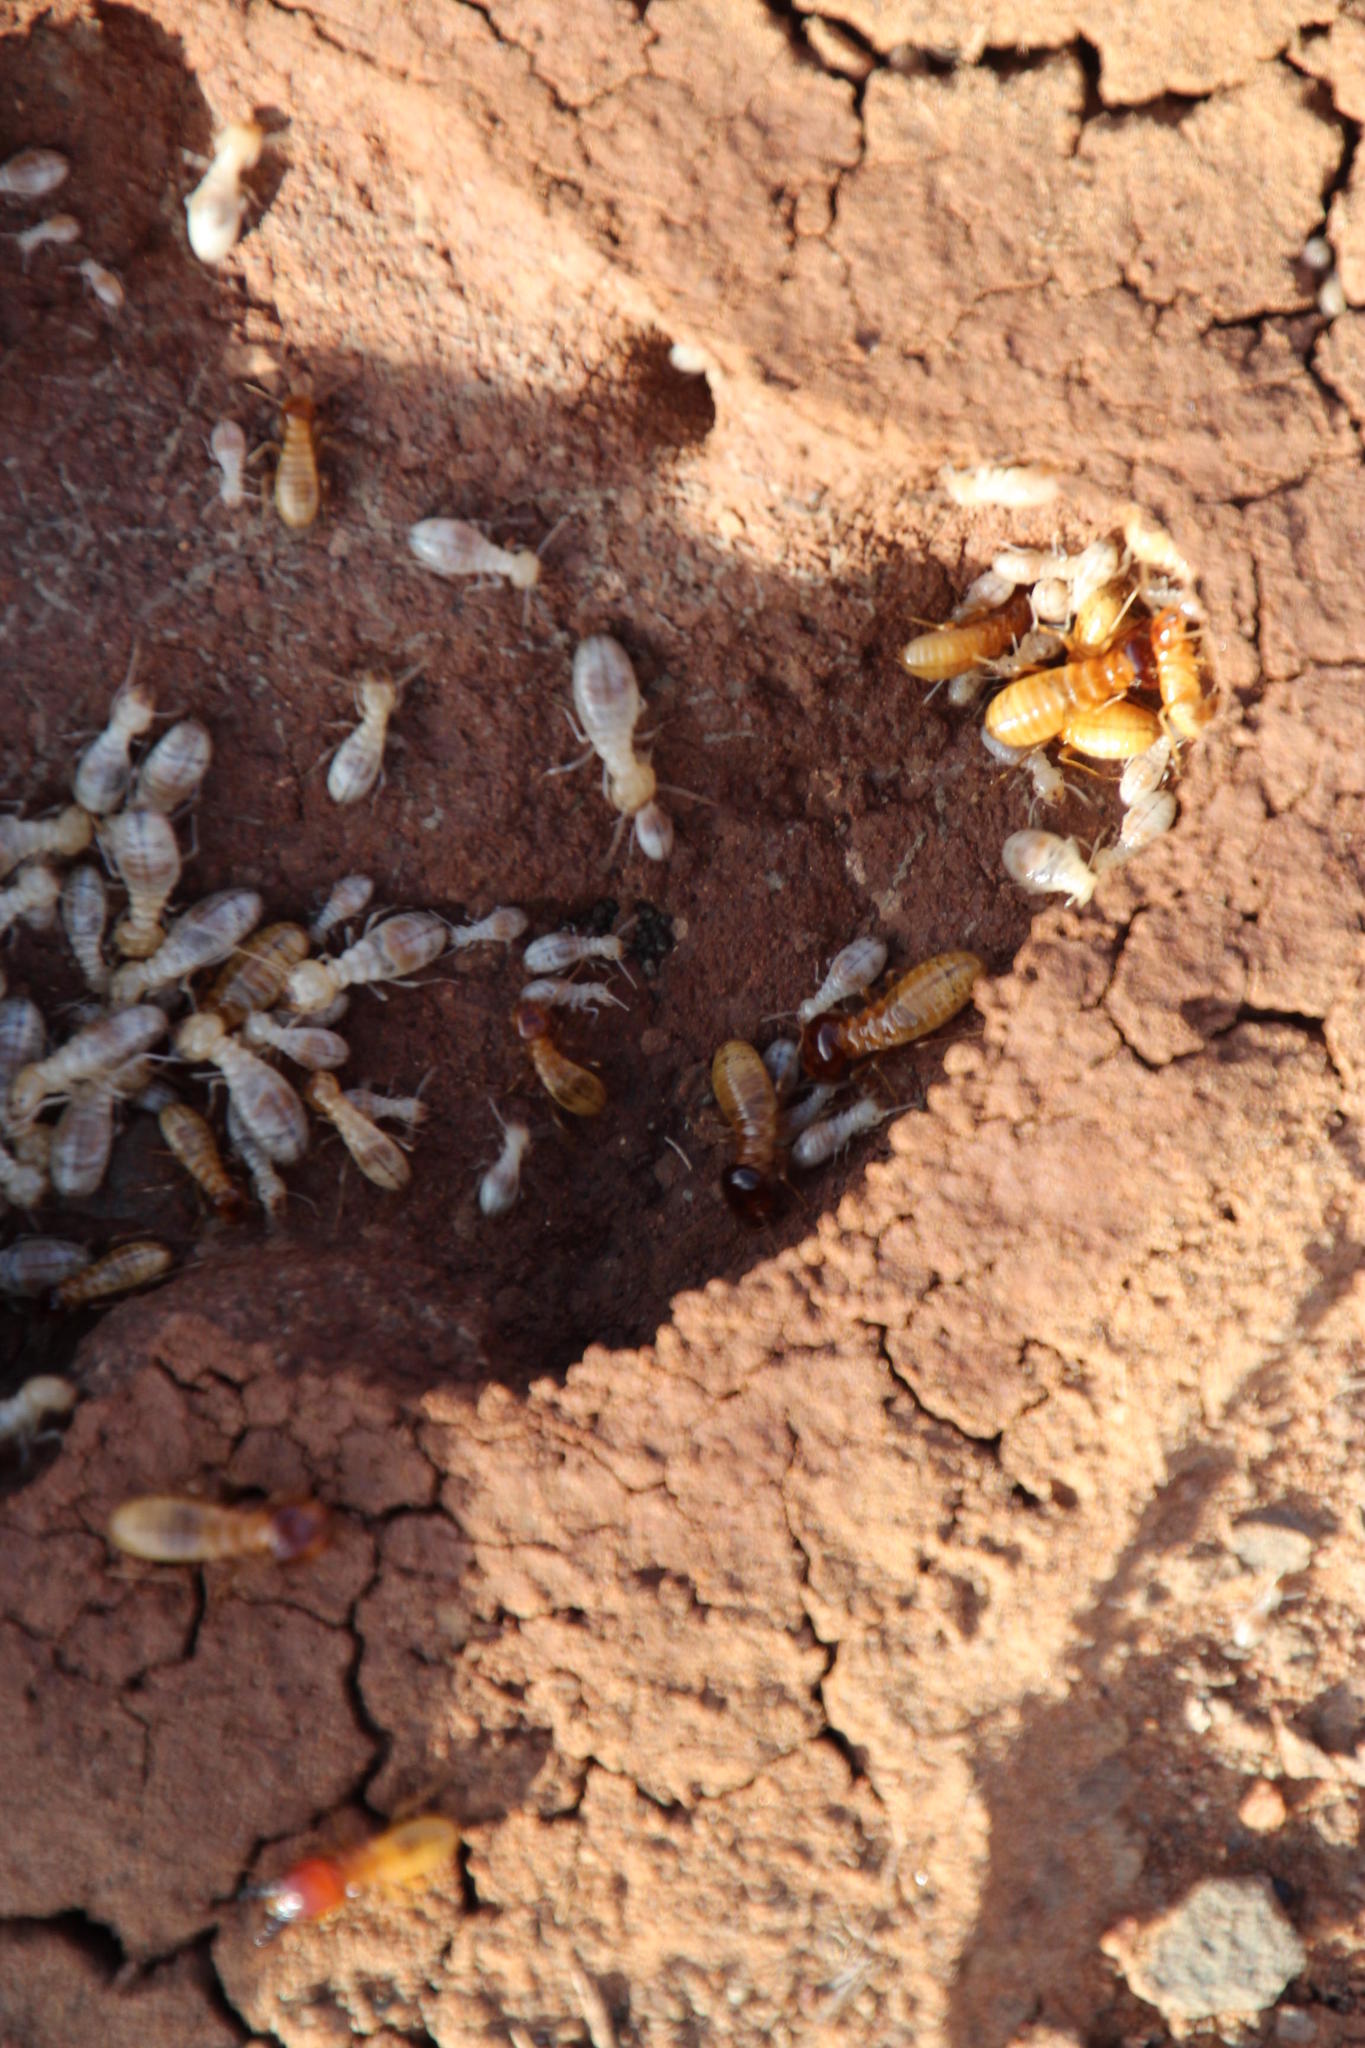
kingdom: Animalia
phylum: Arthropoda
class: Insecta
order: Blattodea
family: Hodotermitidae
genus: Microhodotermes
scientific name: Microhodotermes viator
